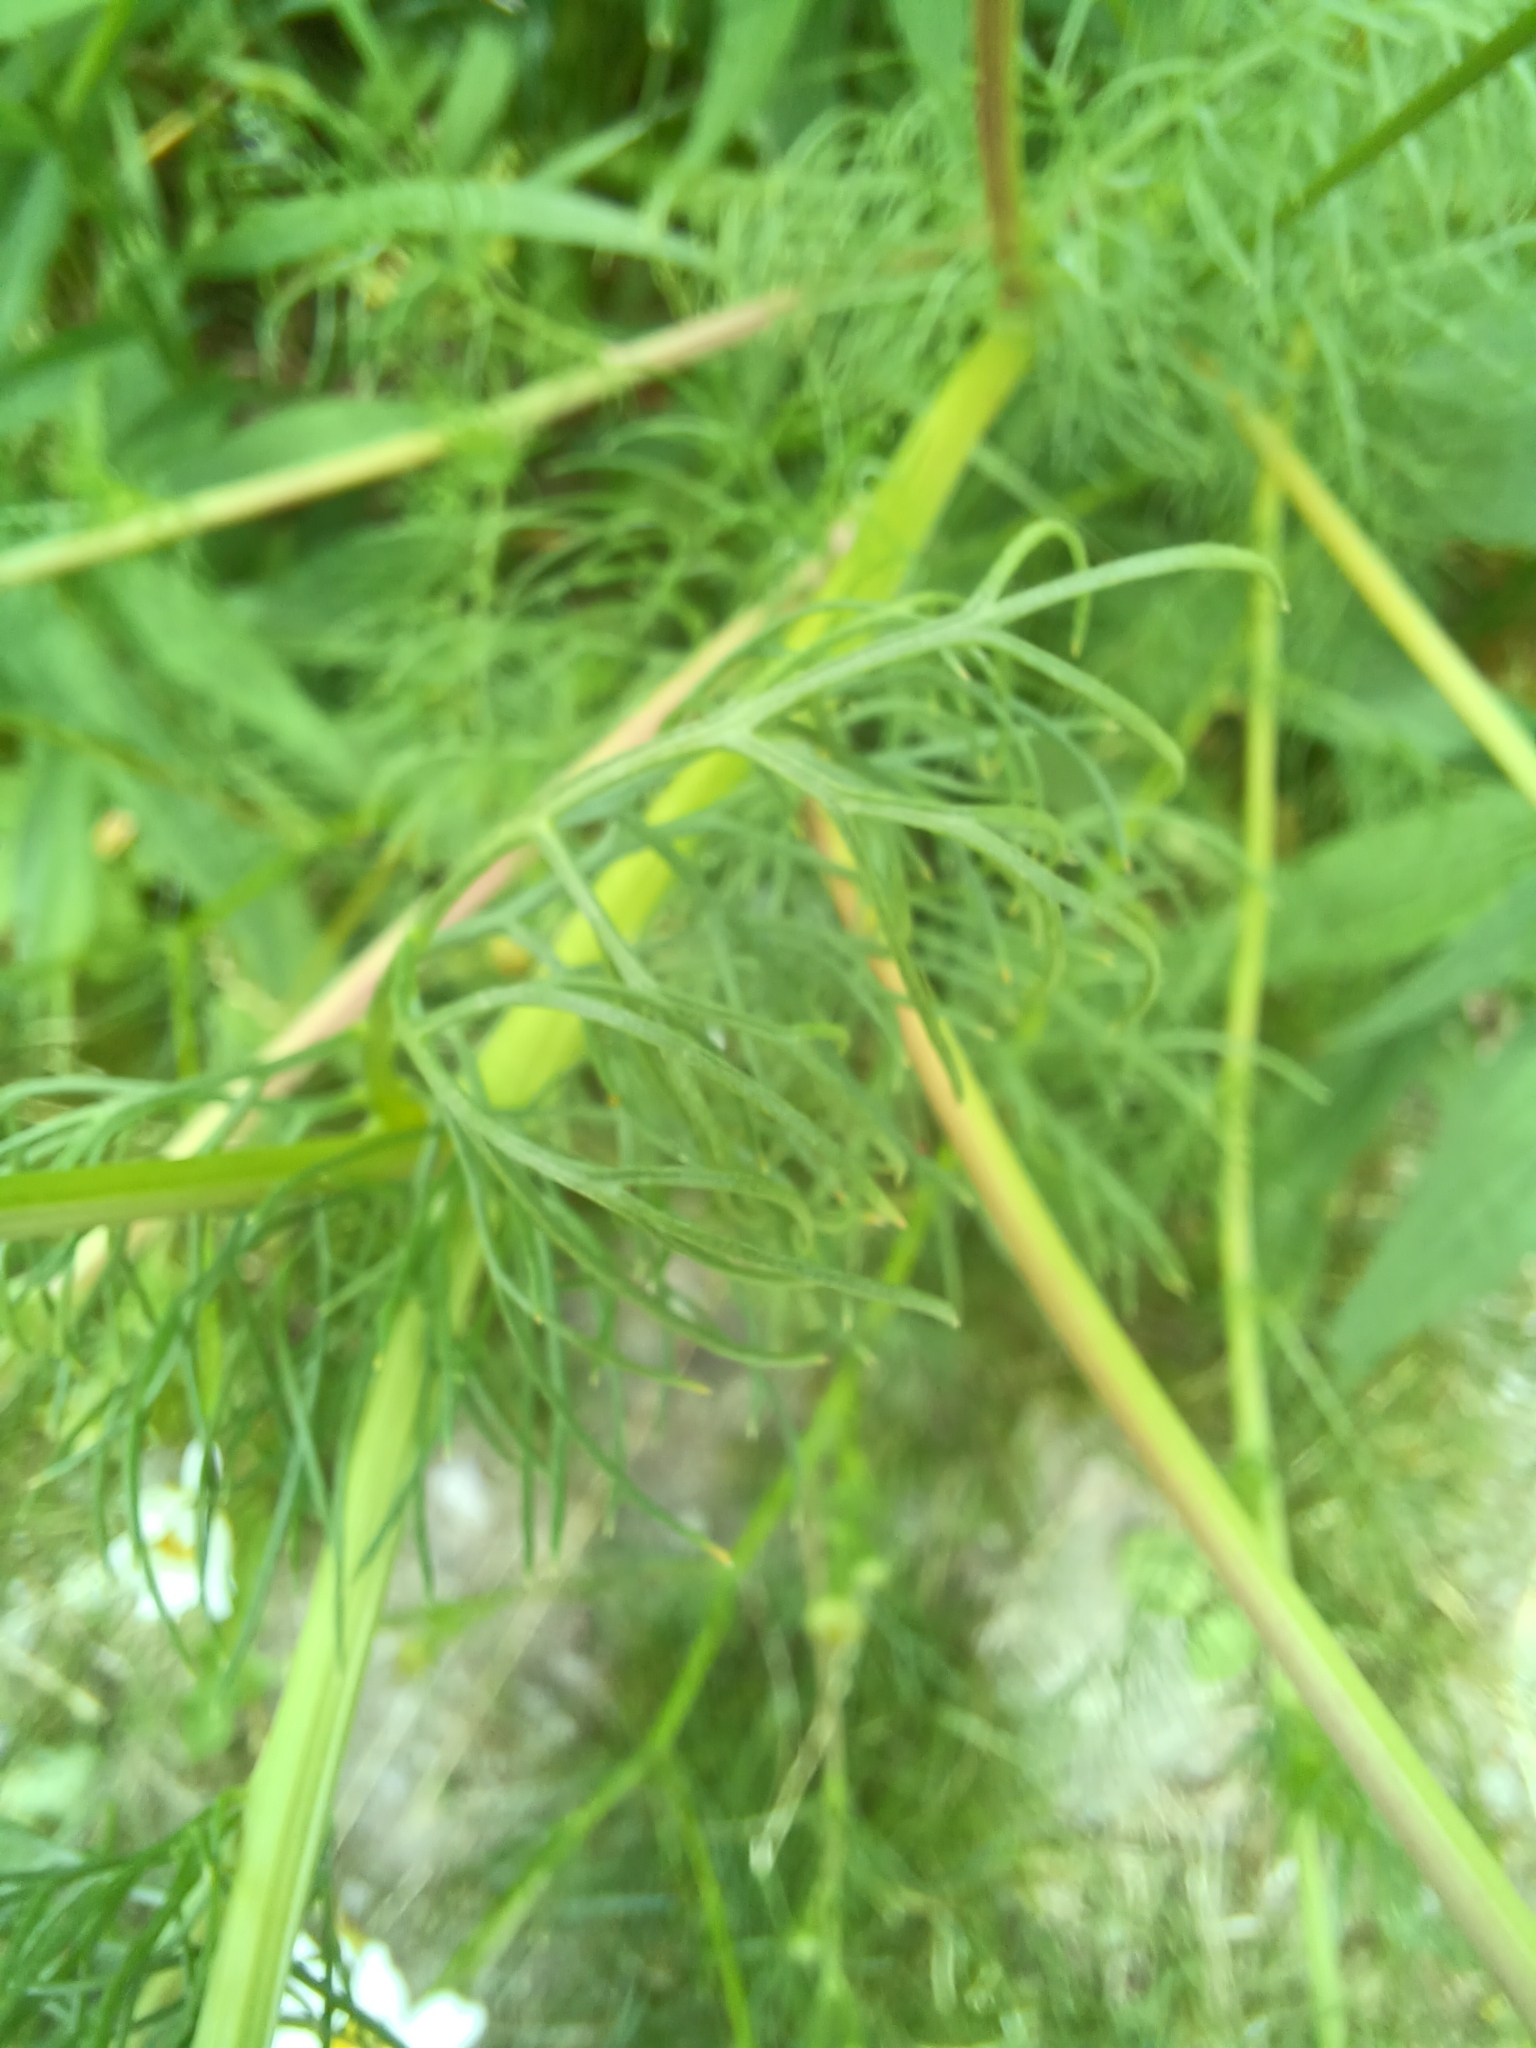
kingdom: Plantae
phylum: Tracheophyta
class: Magnoliopsida
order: Asterales
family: Asteraceae
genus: Tripleurospermum
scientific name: Tripleurospermum inodorum
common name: Scentless mayweed
